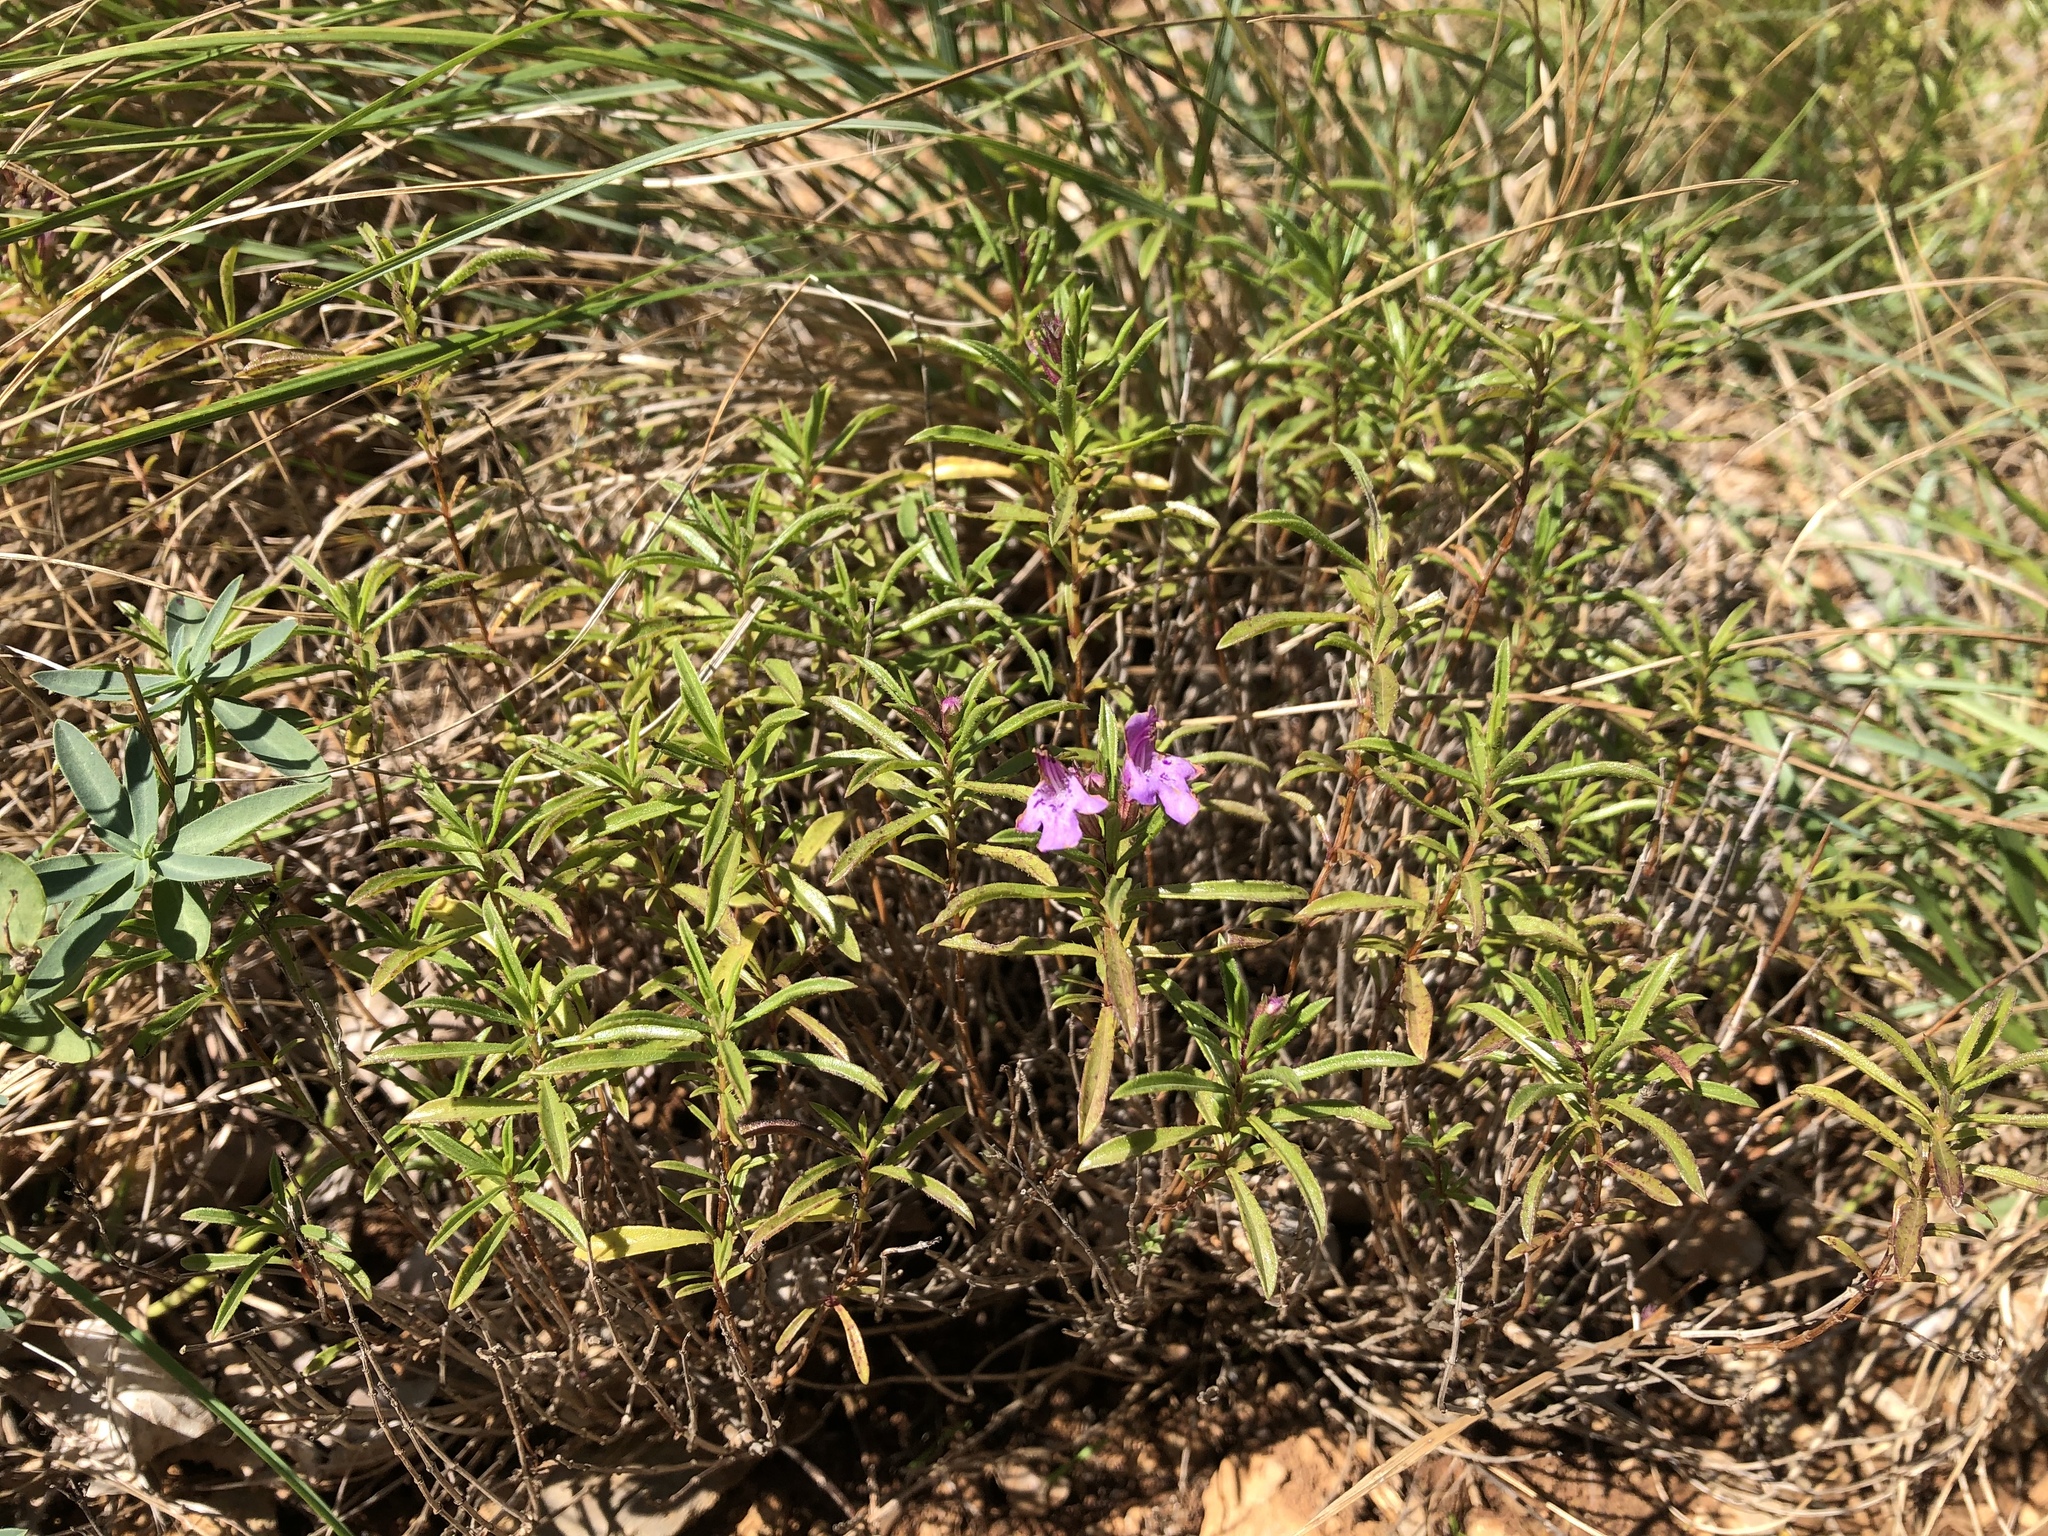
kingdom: Plantae
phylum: Tracheophyta
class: Magnoliopsida
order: Lamiales
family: Lamiaceae
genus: Satureja
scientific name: Satureja subspicata
